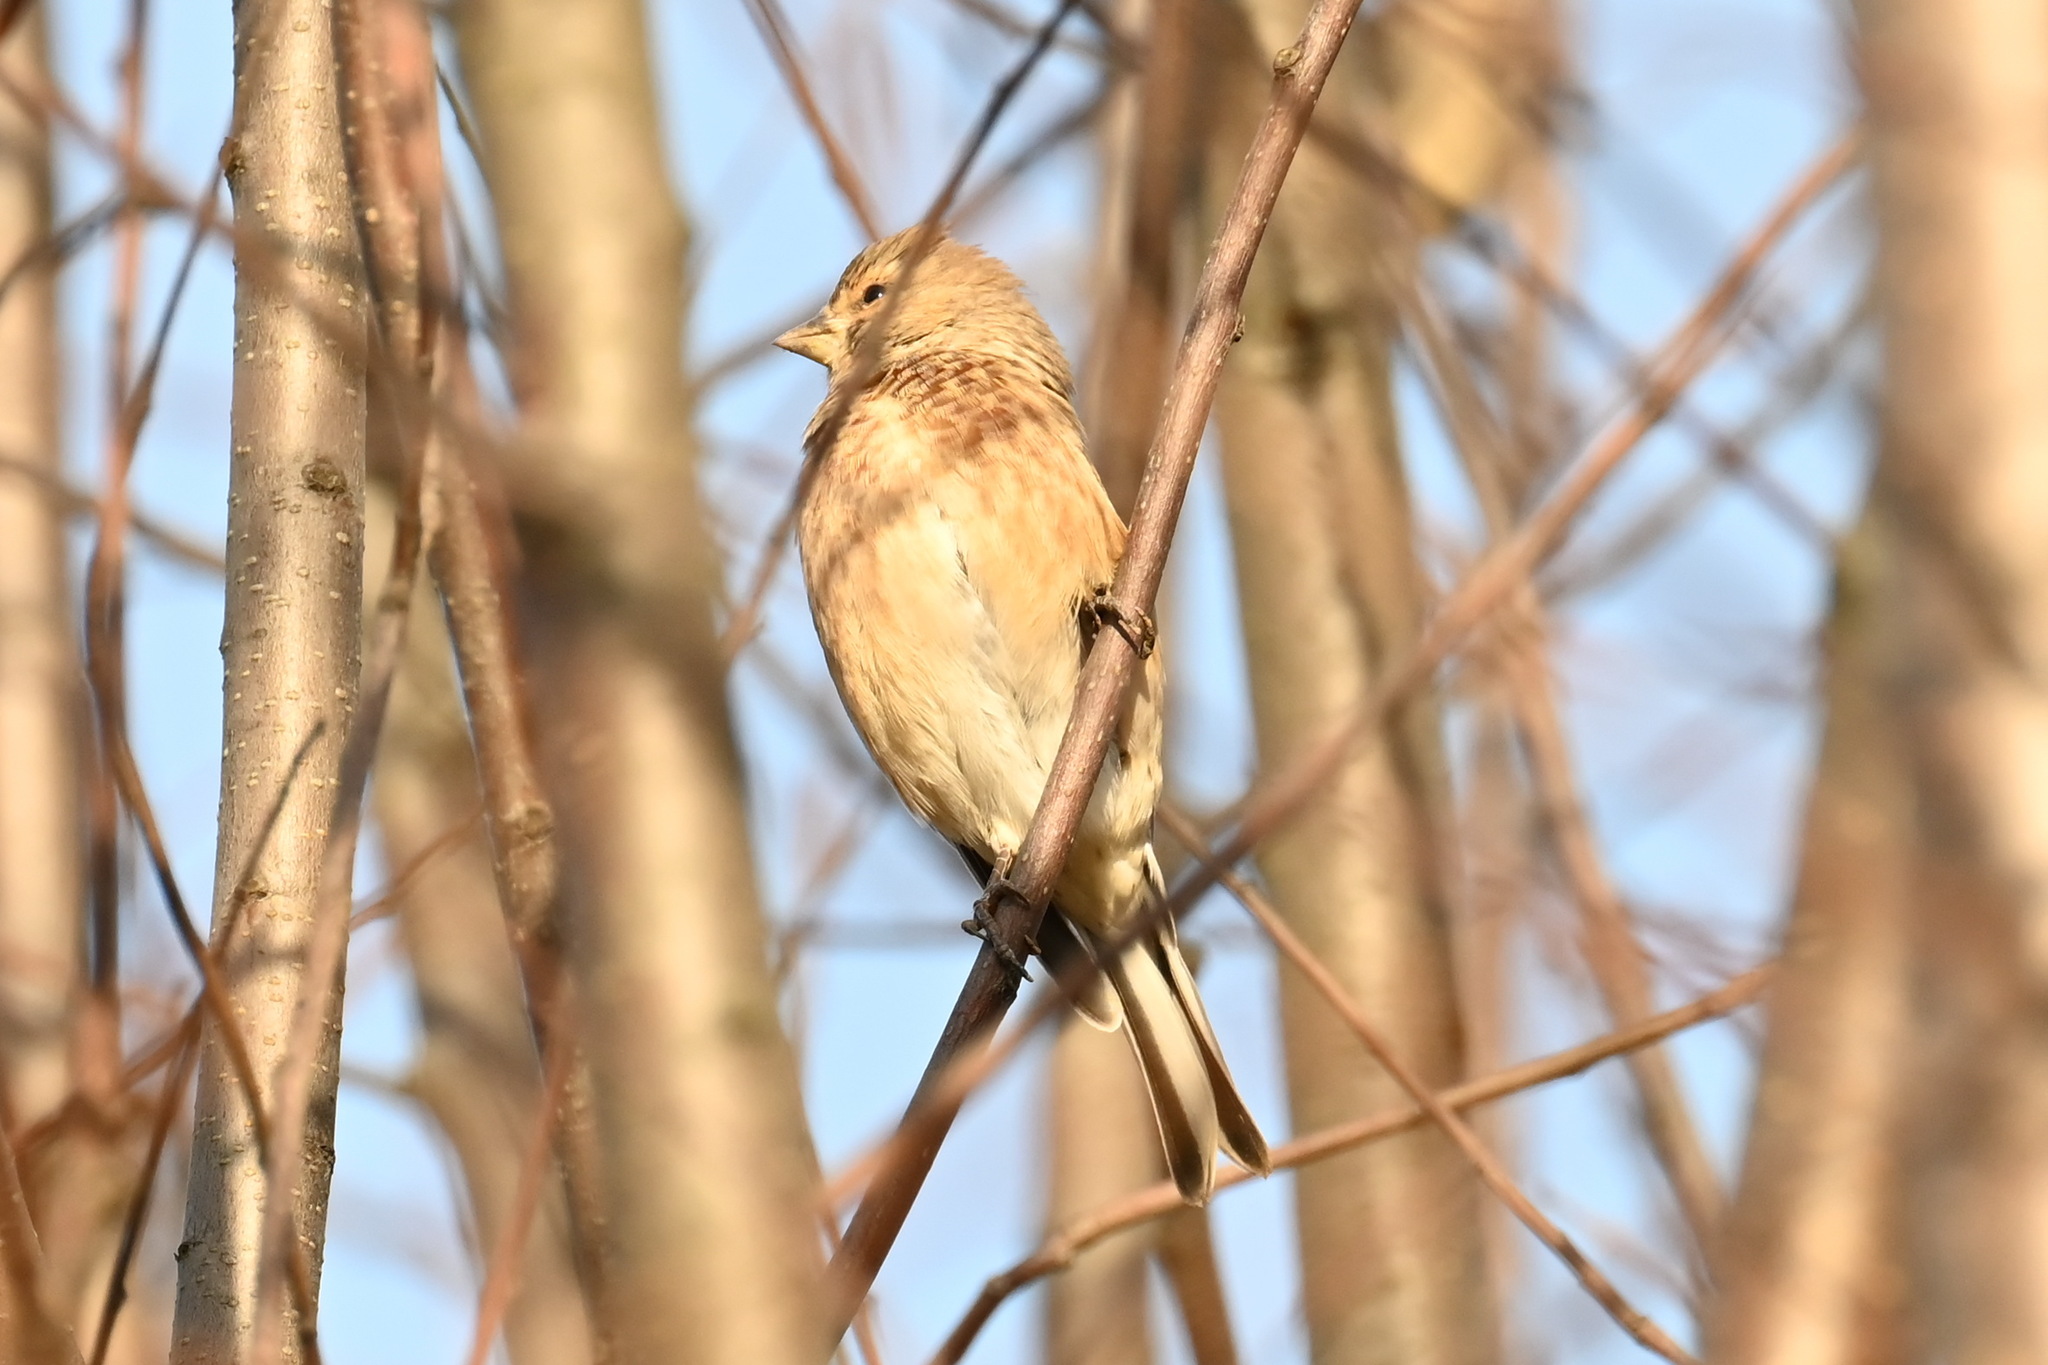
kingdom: Animalia
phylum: Chordata
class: Aves
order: Passeriformes
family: Fringillidae
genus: Linaria
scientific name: Linaria cannabina
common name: Common linnet
